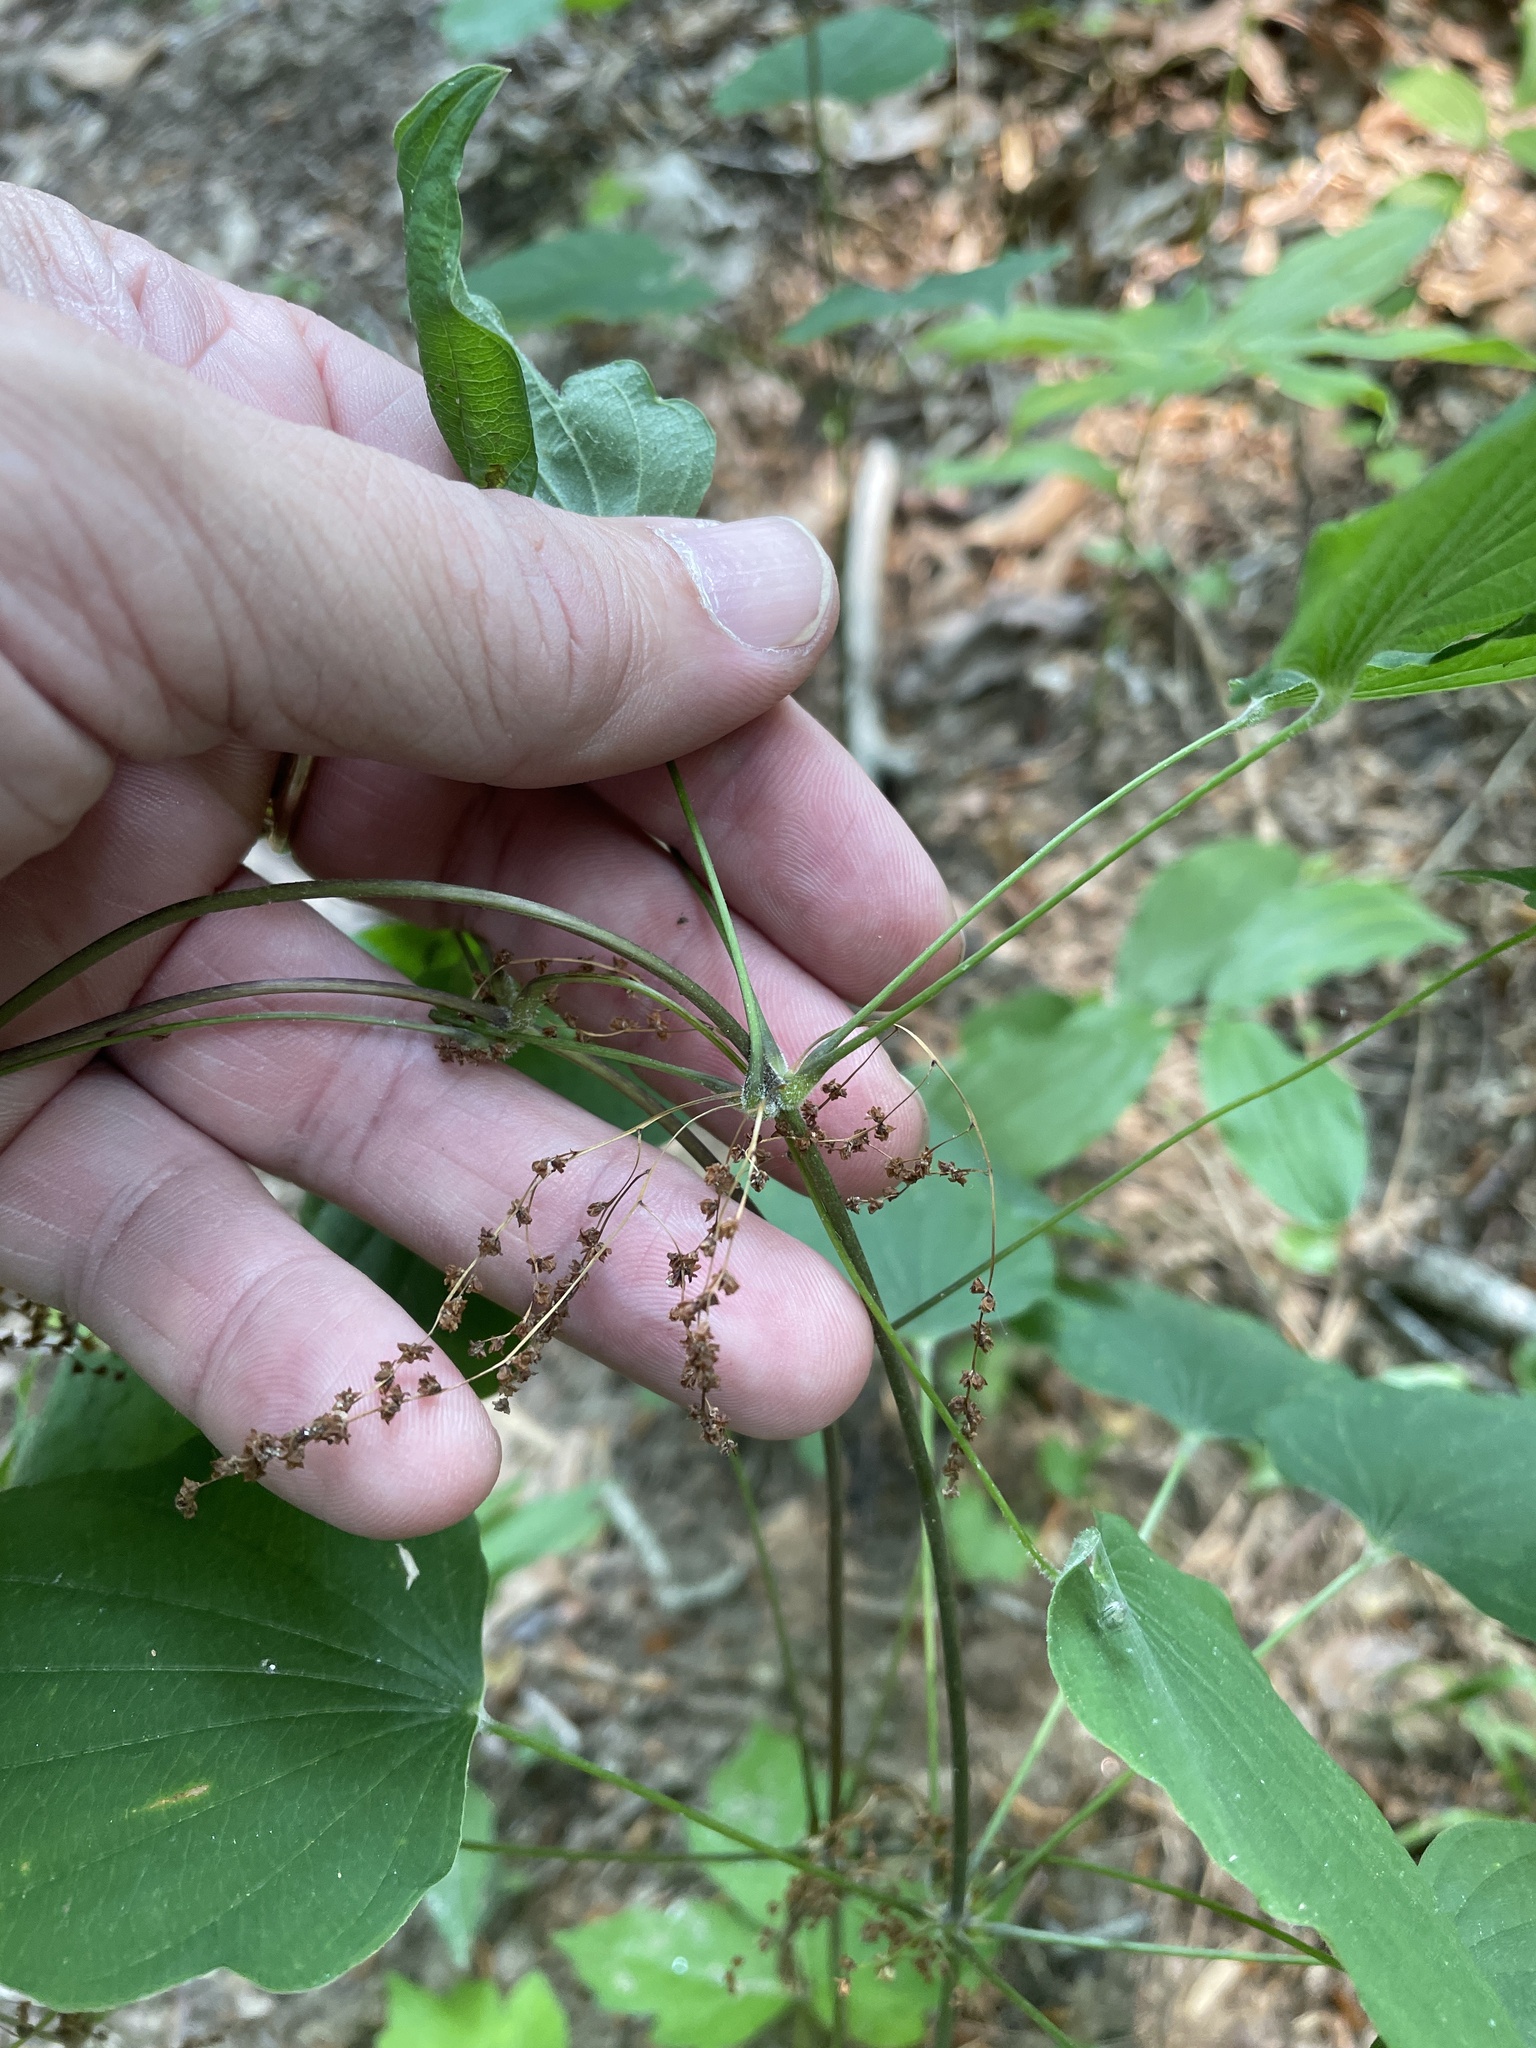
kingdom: Plantae
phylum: Tracheophyta
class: Liliopsida
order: Dioscoreales
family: Dioscoreaceae
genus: Dioscorea
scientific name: Dioscorea villosa
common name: Wild yam
